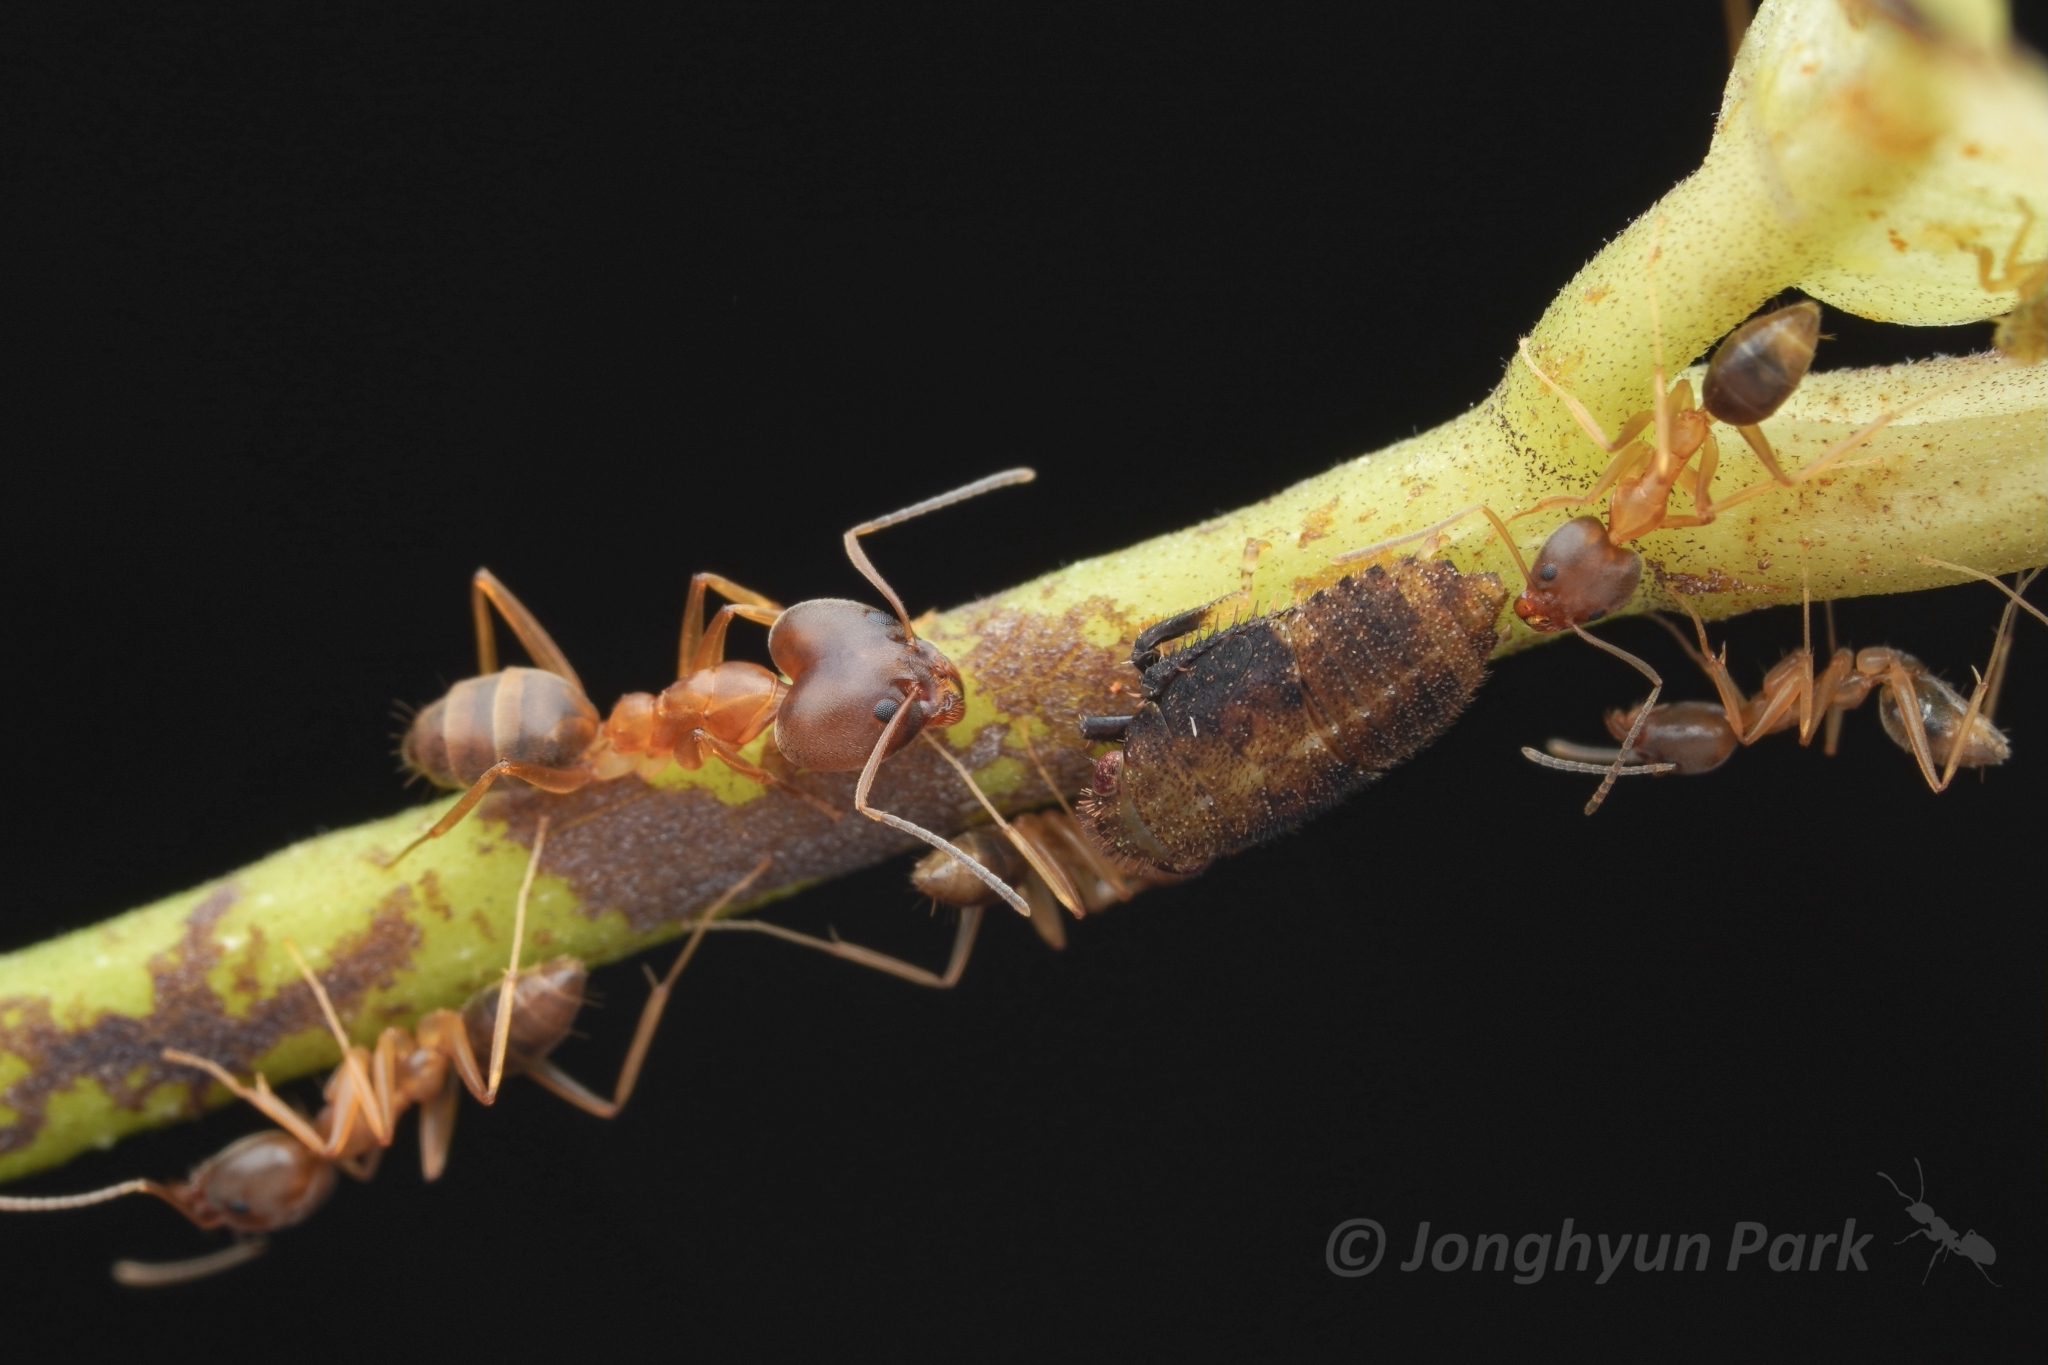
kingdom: Animalia
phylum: Arthropoda
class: Insecta
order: Hymenoptera
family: Formicidae
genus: Technomyrmex
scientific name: Technomyrmex lisae
